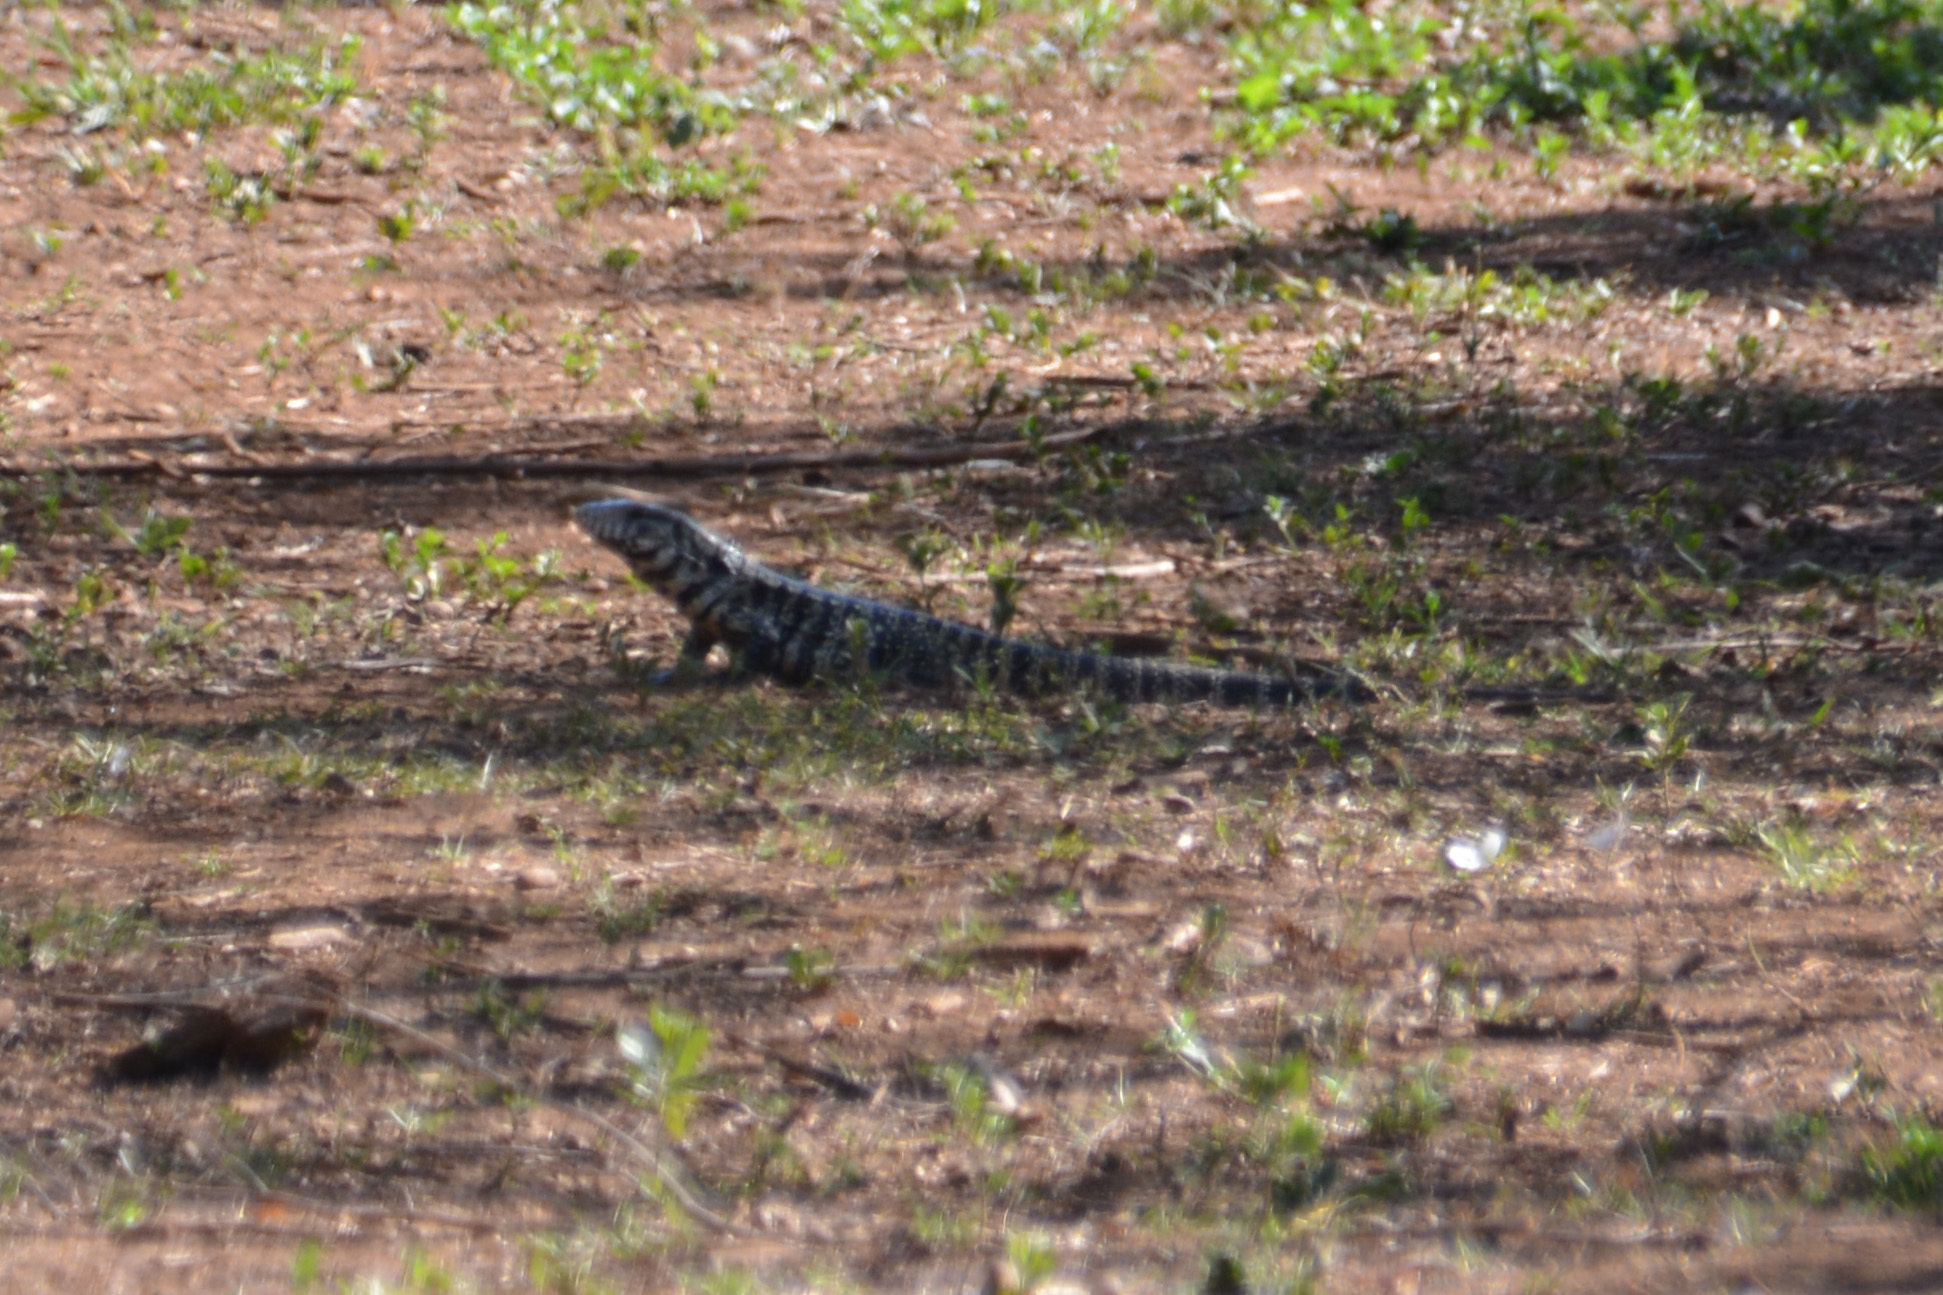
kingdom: Animalia
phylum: Chordata
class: Squamata
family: Teiidae
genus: Salvator
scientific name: Salvator merianae
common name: Argentine black and white tegu
